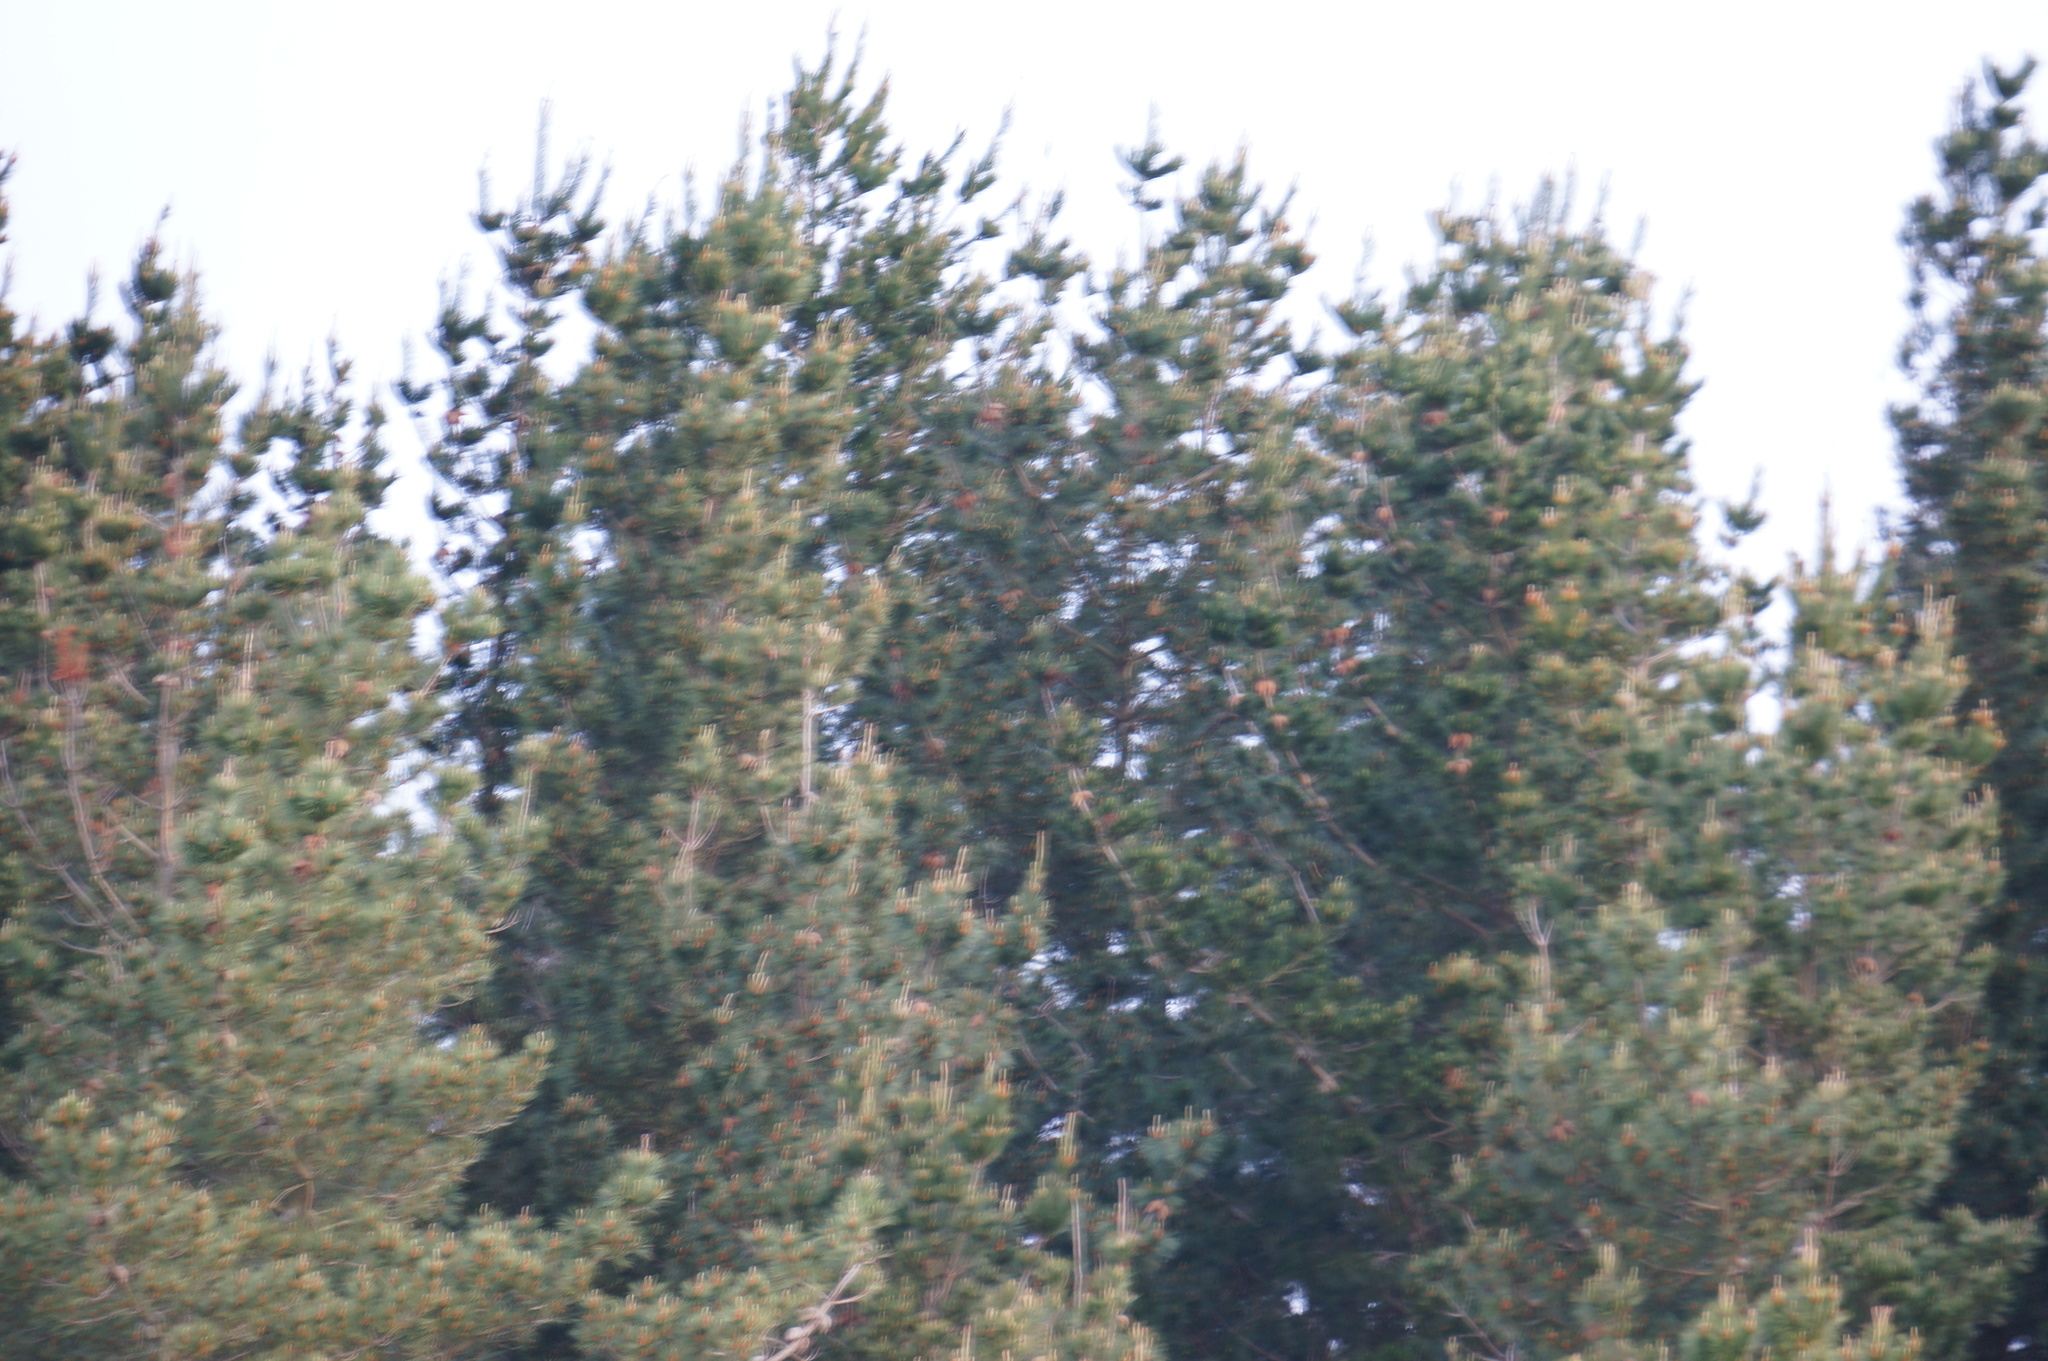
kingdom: Plantae
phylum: Tracheophyta
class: Pinopsida
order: Pinales
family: Pinaceae
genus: Pinus
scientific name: Pinus radiata
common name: Monterey pine
